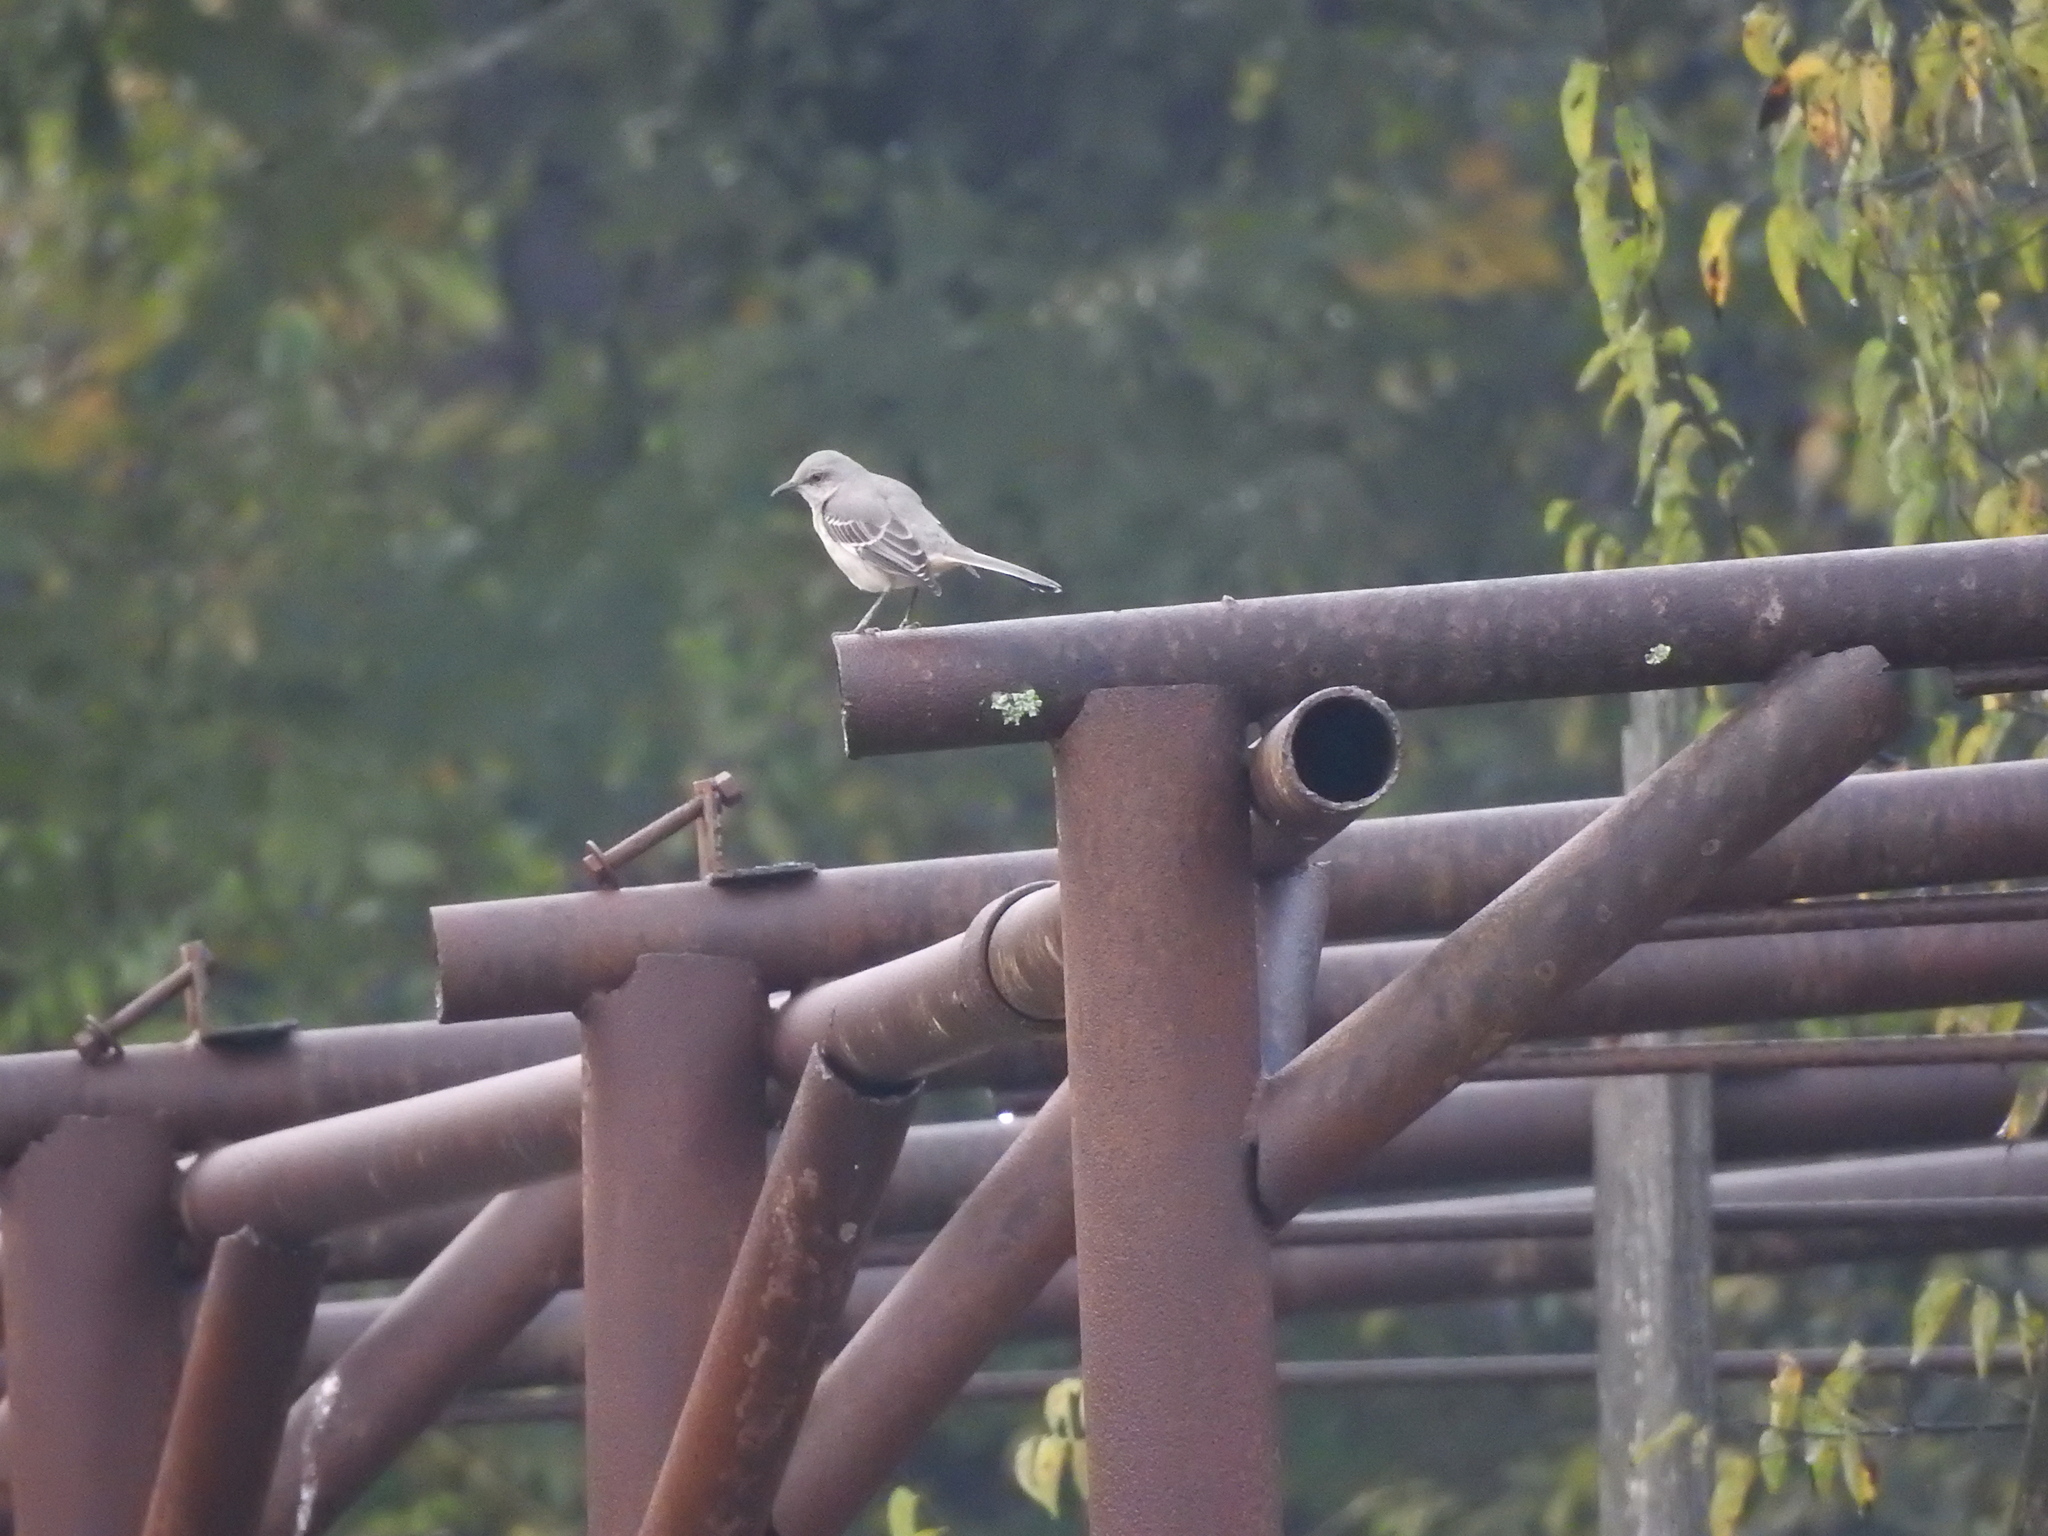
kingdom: Animalia
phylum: Chordata
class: Aves
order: Passeriformes
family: Mimidae
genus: Mimus
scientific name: Mimus polyglottos
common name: Northern mockingbird
